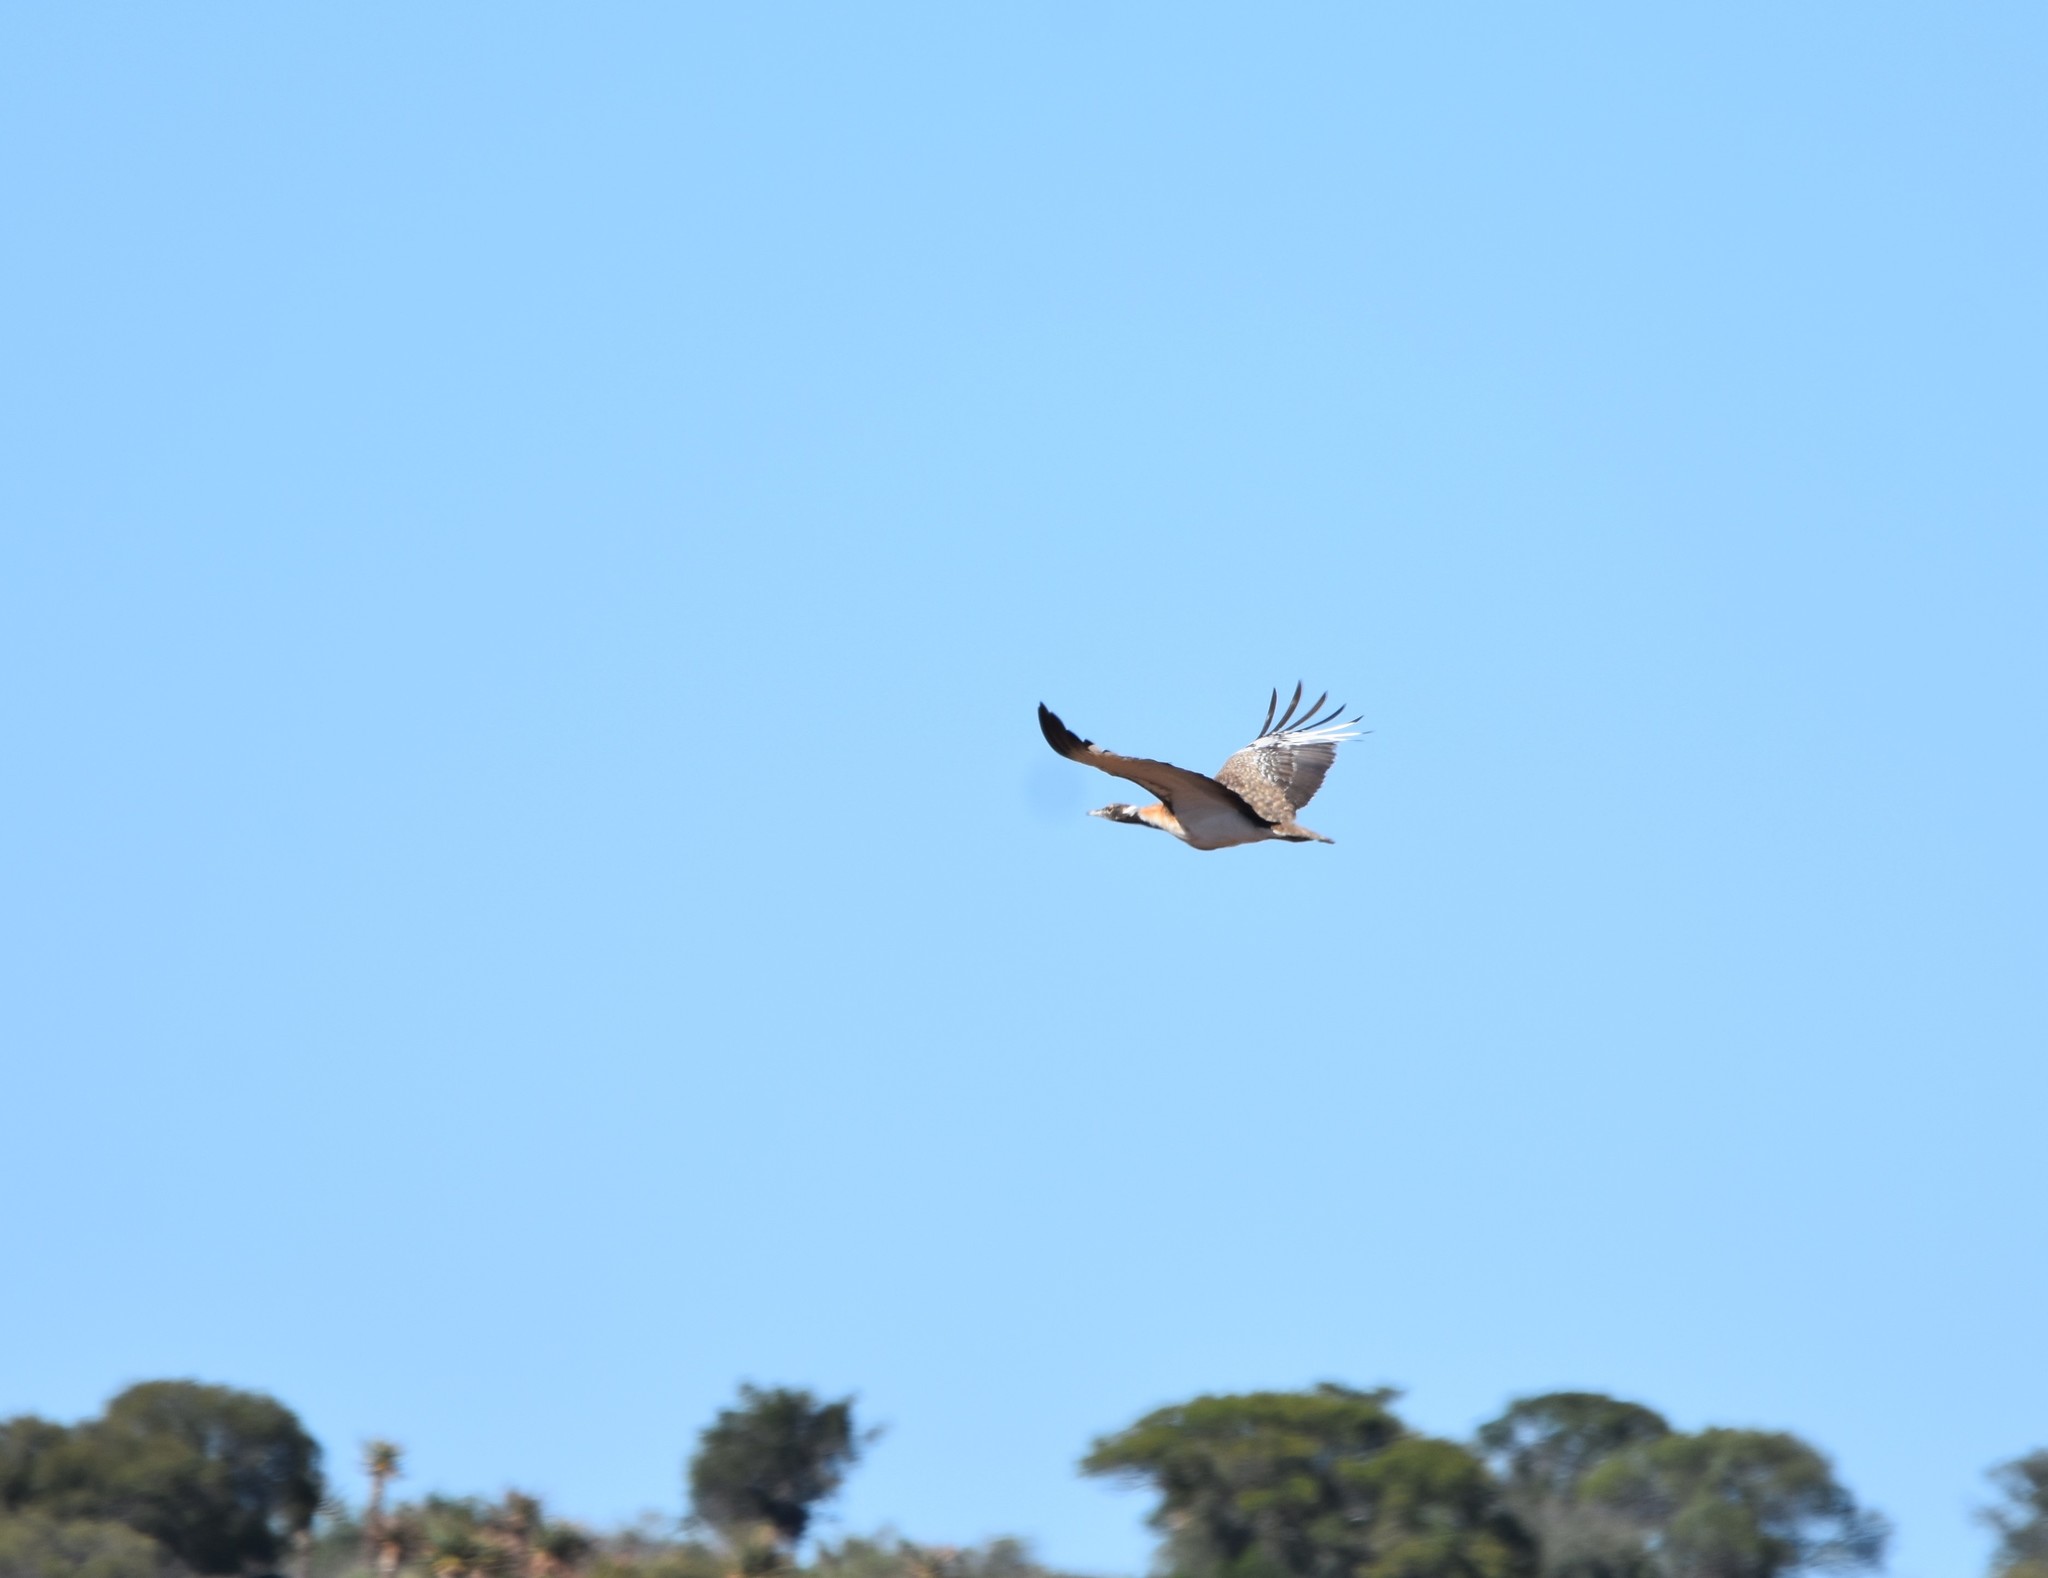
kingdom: Animalia
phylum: Chordata
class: Aves
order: Otidiformes
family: Otididae
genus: Neotis
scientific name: Neotis ludwigii
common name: Ludwig's bustard
